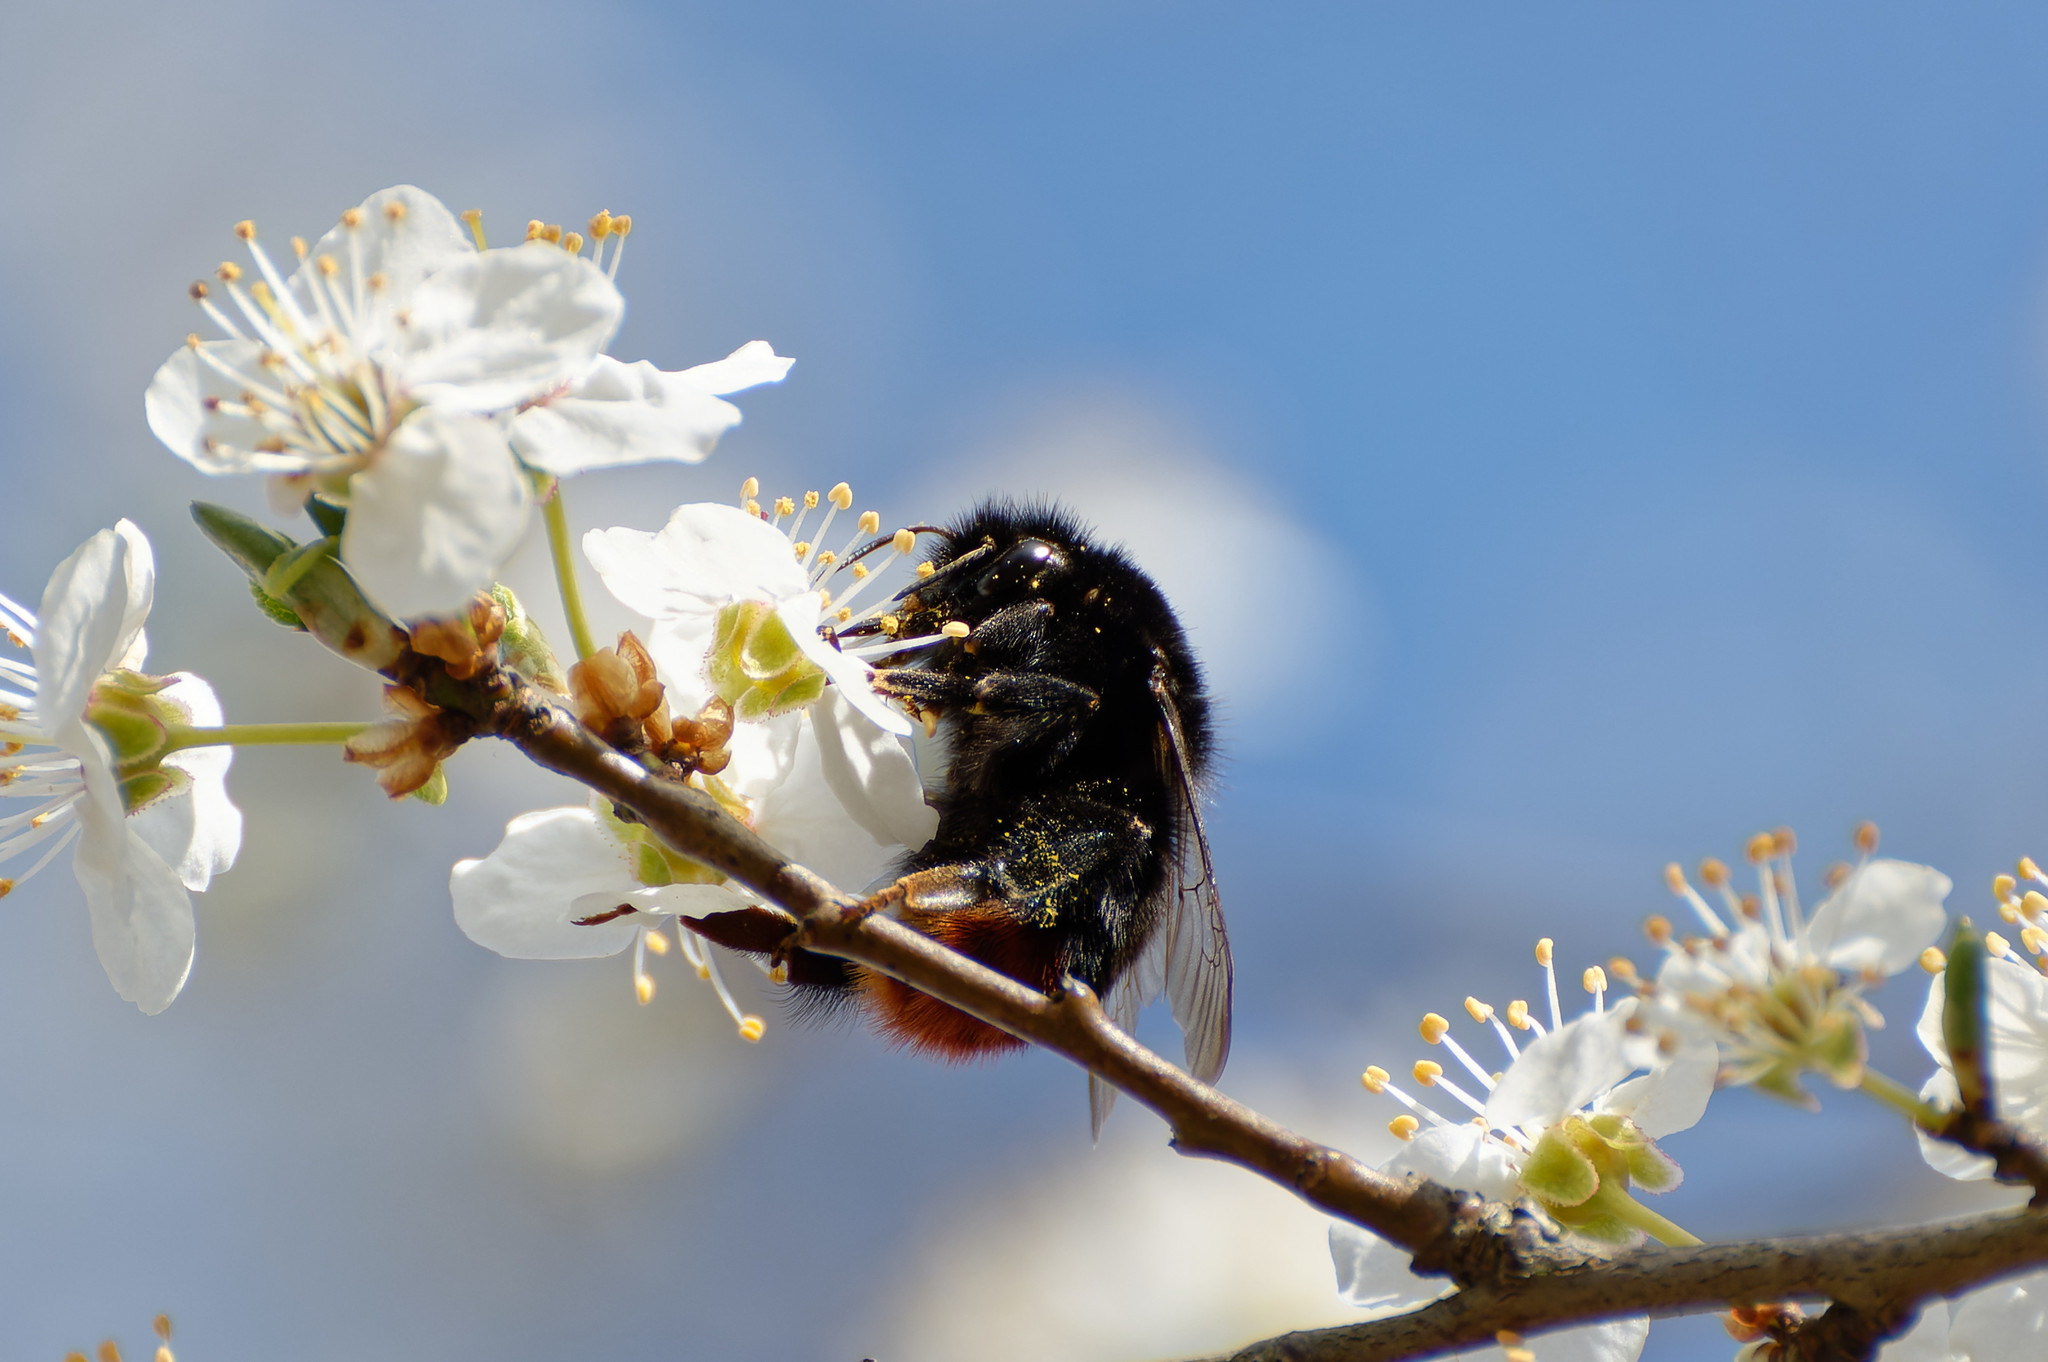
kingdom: Animalia
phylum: Arthropoda
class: Insecta
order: Hymenoptera
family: Apidae
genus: Bombus
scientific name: Bombus lapidarius
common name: Large red-tailed humble-bee
